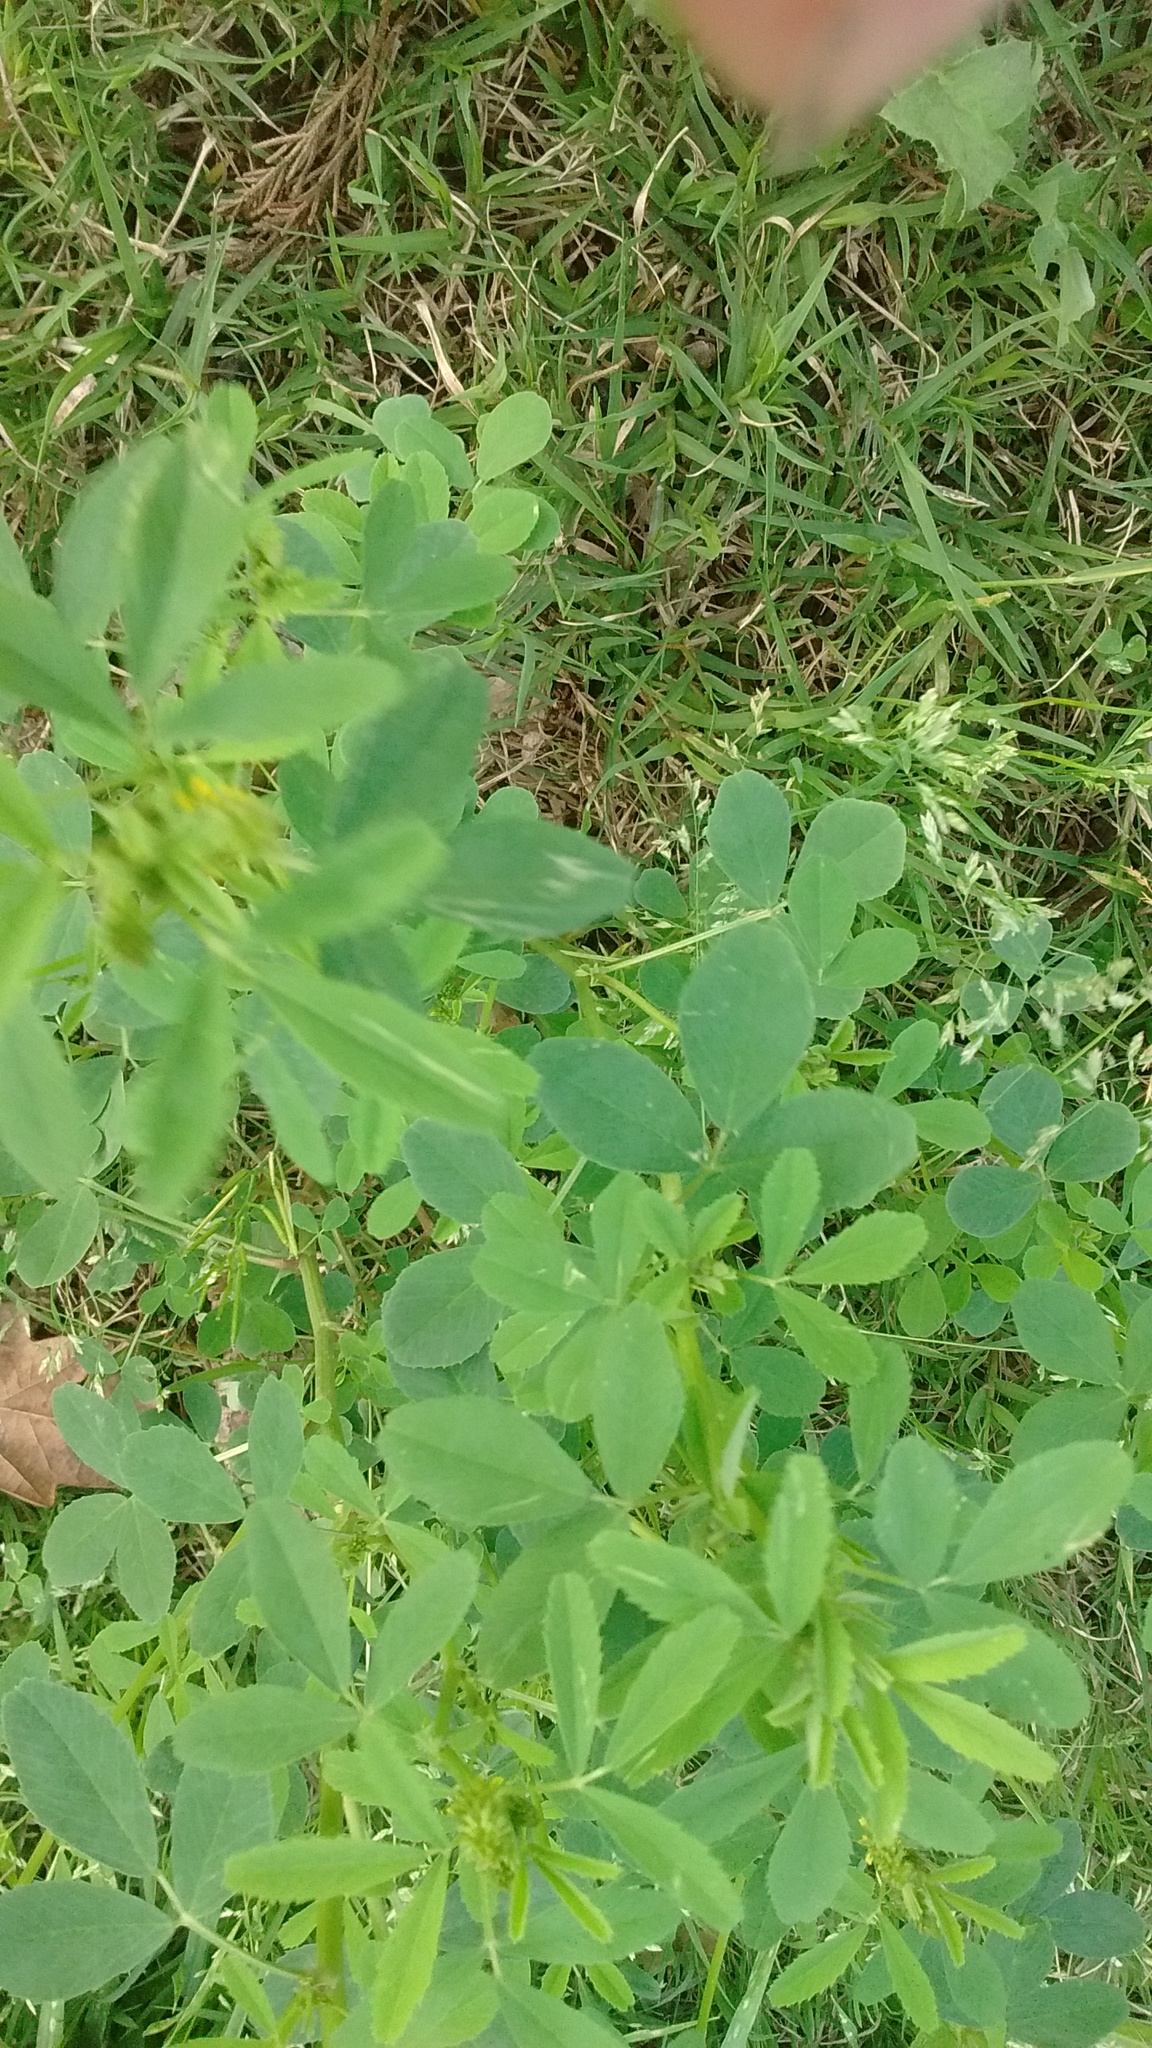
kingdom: Plantae
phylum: Tracheophyta
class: Magnoliopsida
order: Fabales
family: Fabaceae
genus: Melilotus
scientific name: Melilotus indicus
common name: Small melilot
